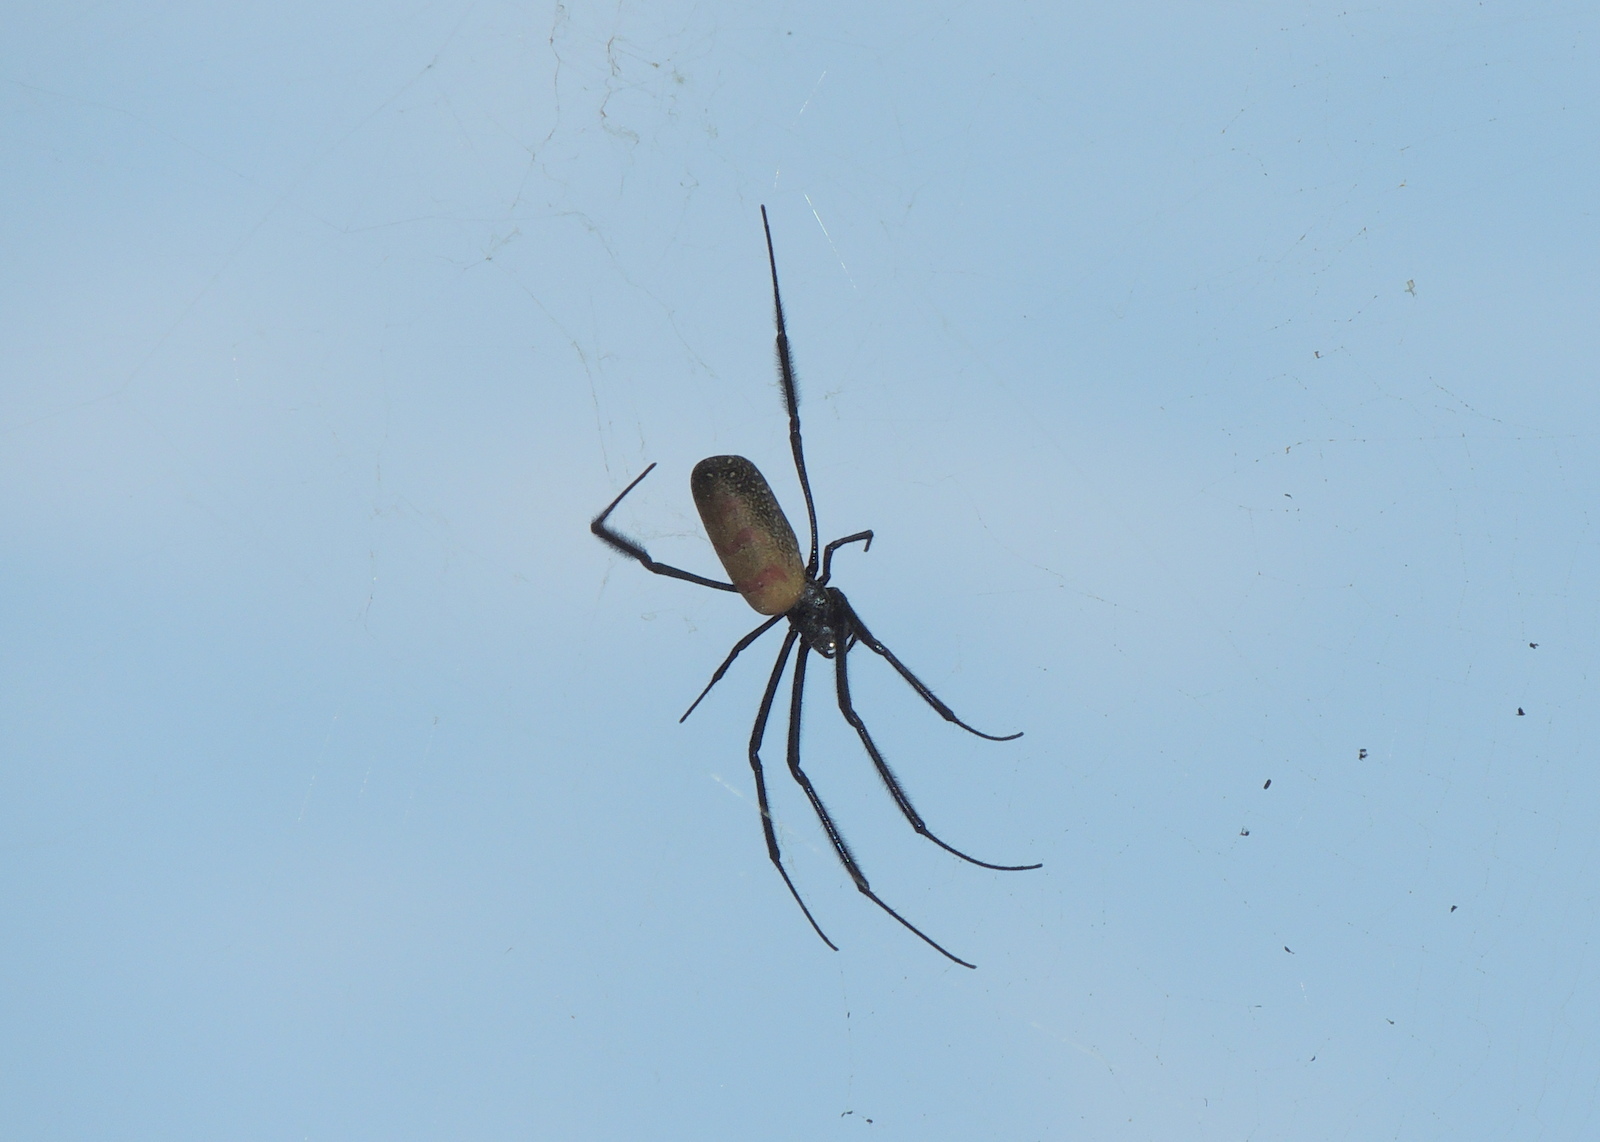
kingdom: Animalia
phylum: Arthropoda
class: Arachnida
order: Araneae
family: Araneidae
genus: Trichonephila
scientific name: Trichonephila fenestrata
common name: Hairy golden orb weaver
